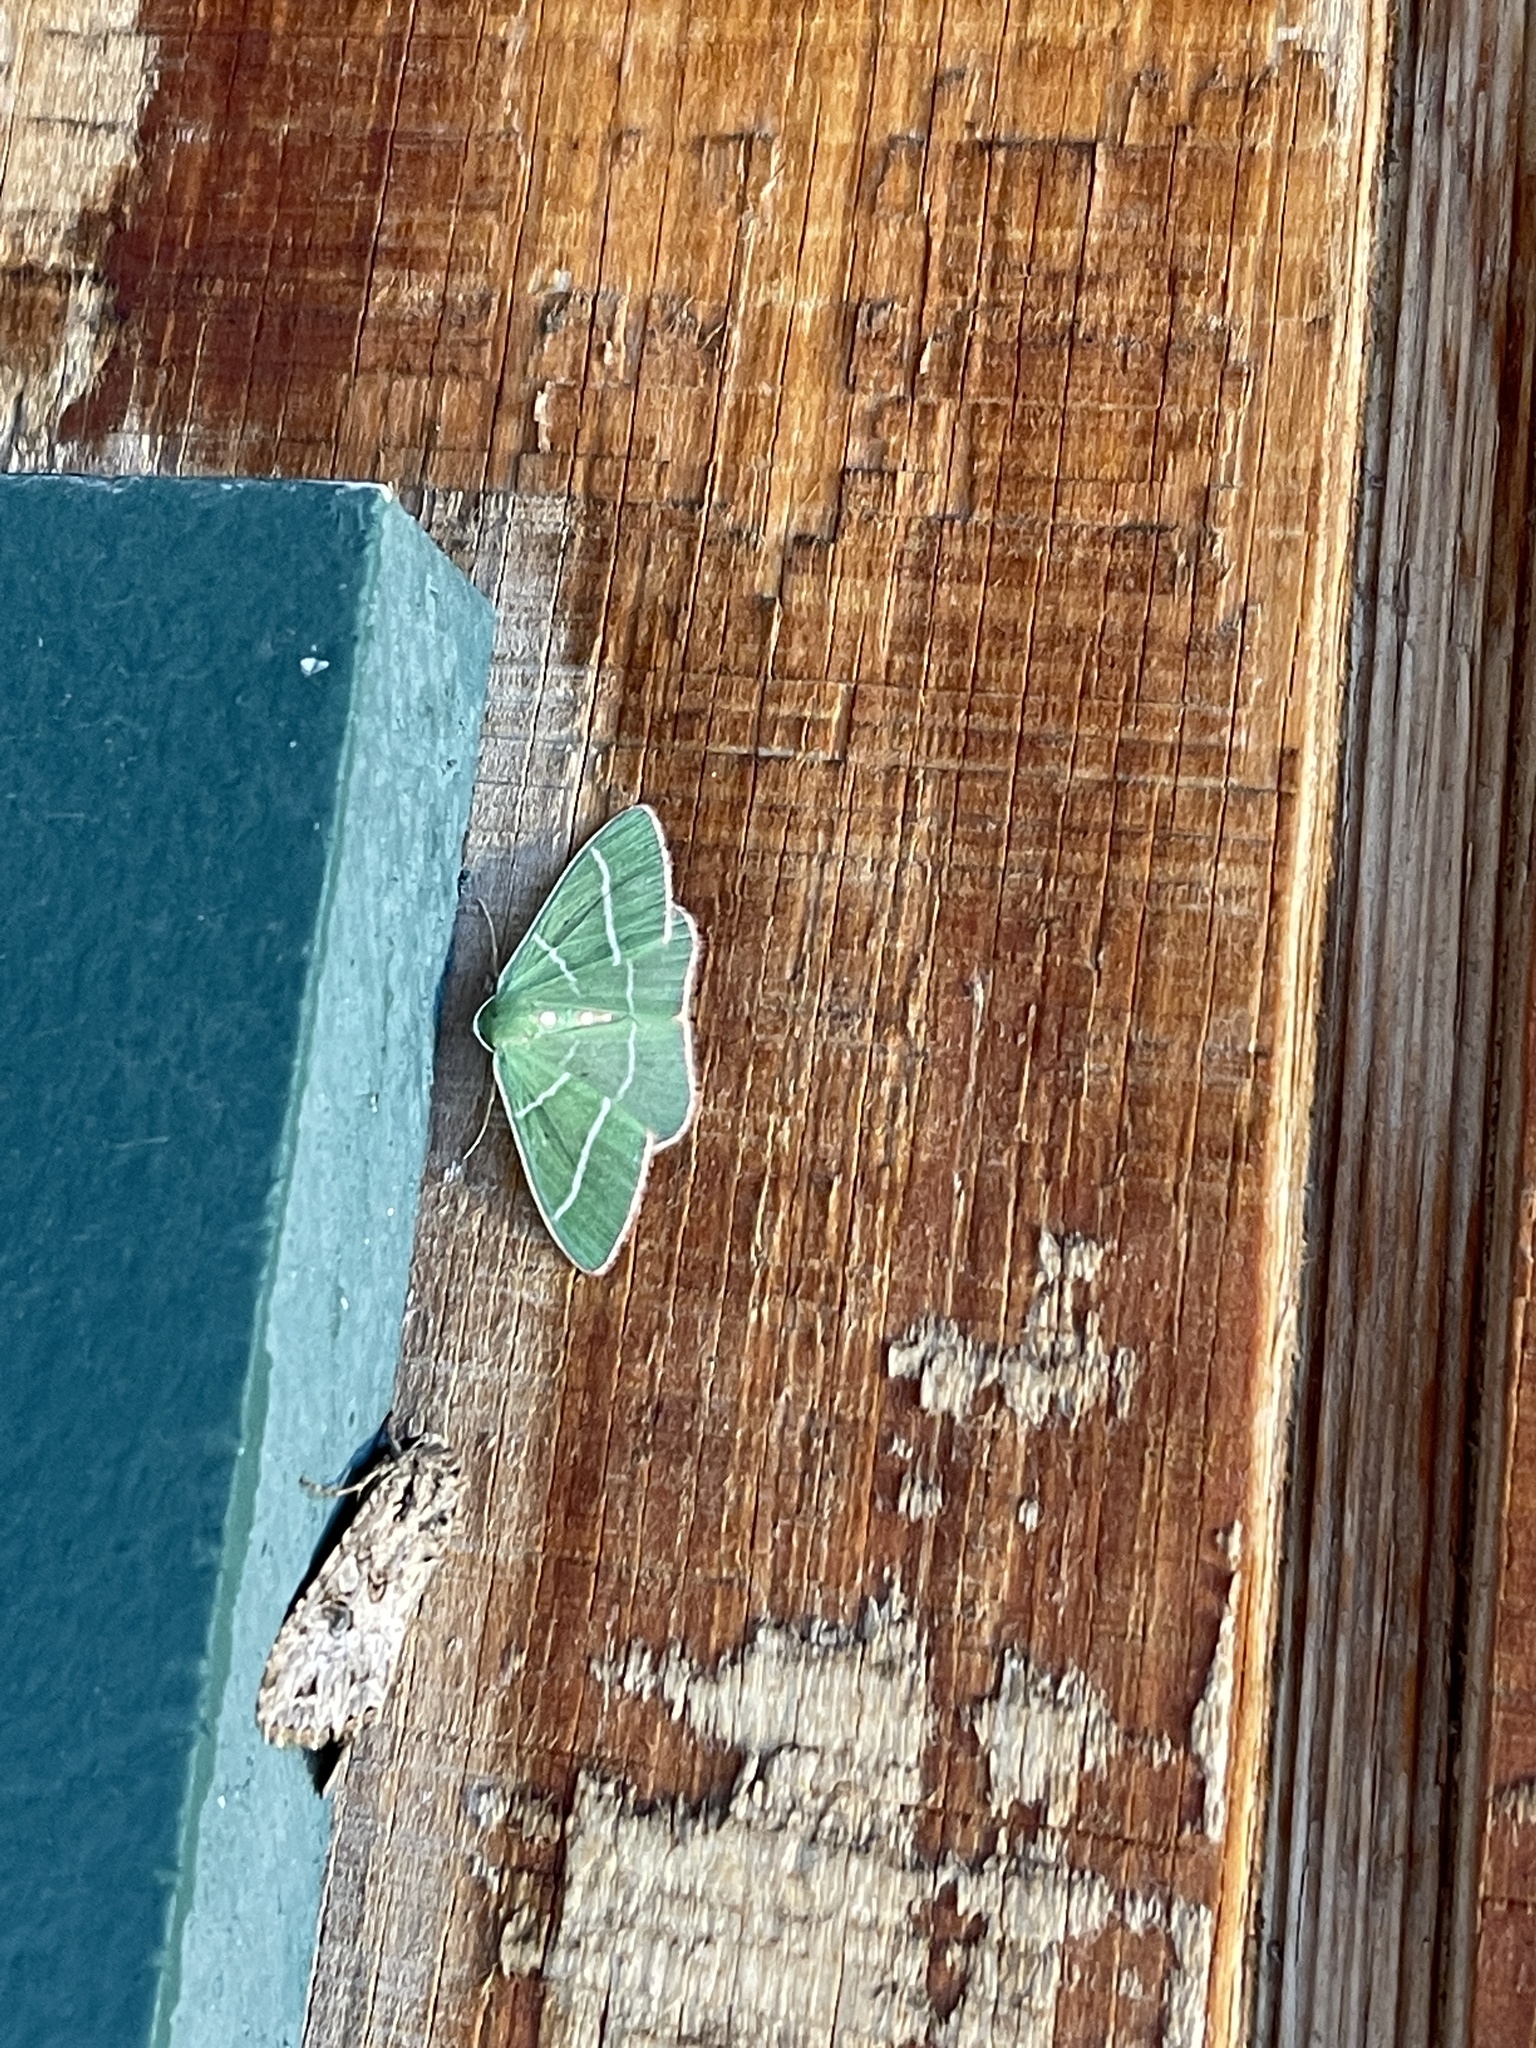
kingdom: Animalia
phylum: Arthropoda
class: Insecta
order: Lepidoptera
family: Geometridae
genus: Nemoria
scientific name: Nemoria obliqua
